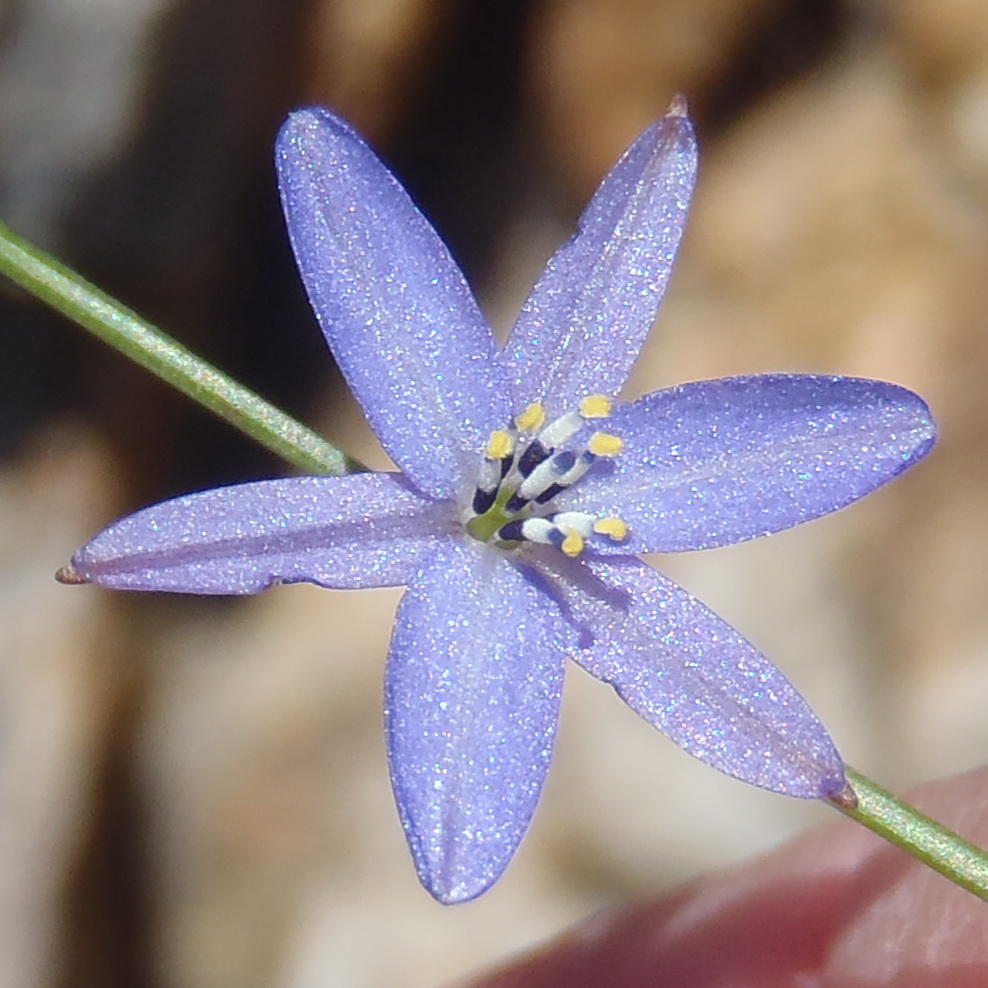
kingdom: Plantae
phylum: Tracheophyta
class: Liliopsida
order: Asparagales
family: Asphodelaceae
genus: Caesia
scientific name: Caesia contorta
